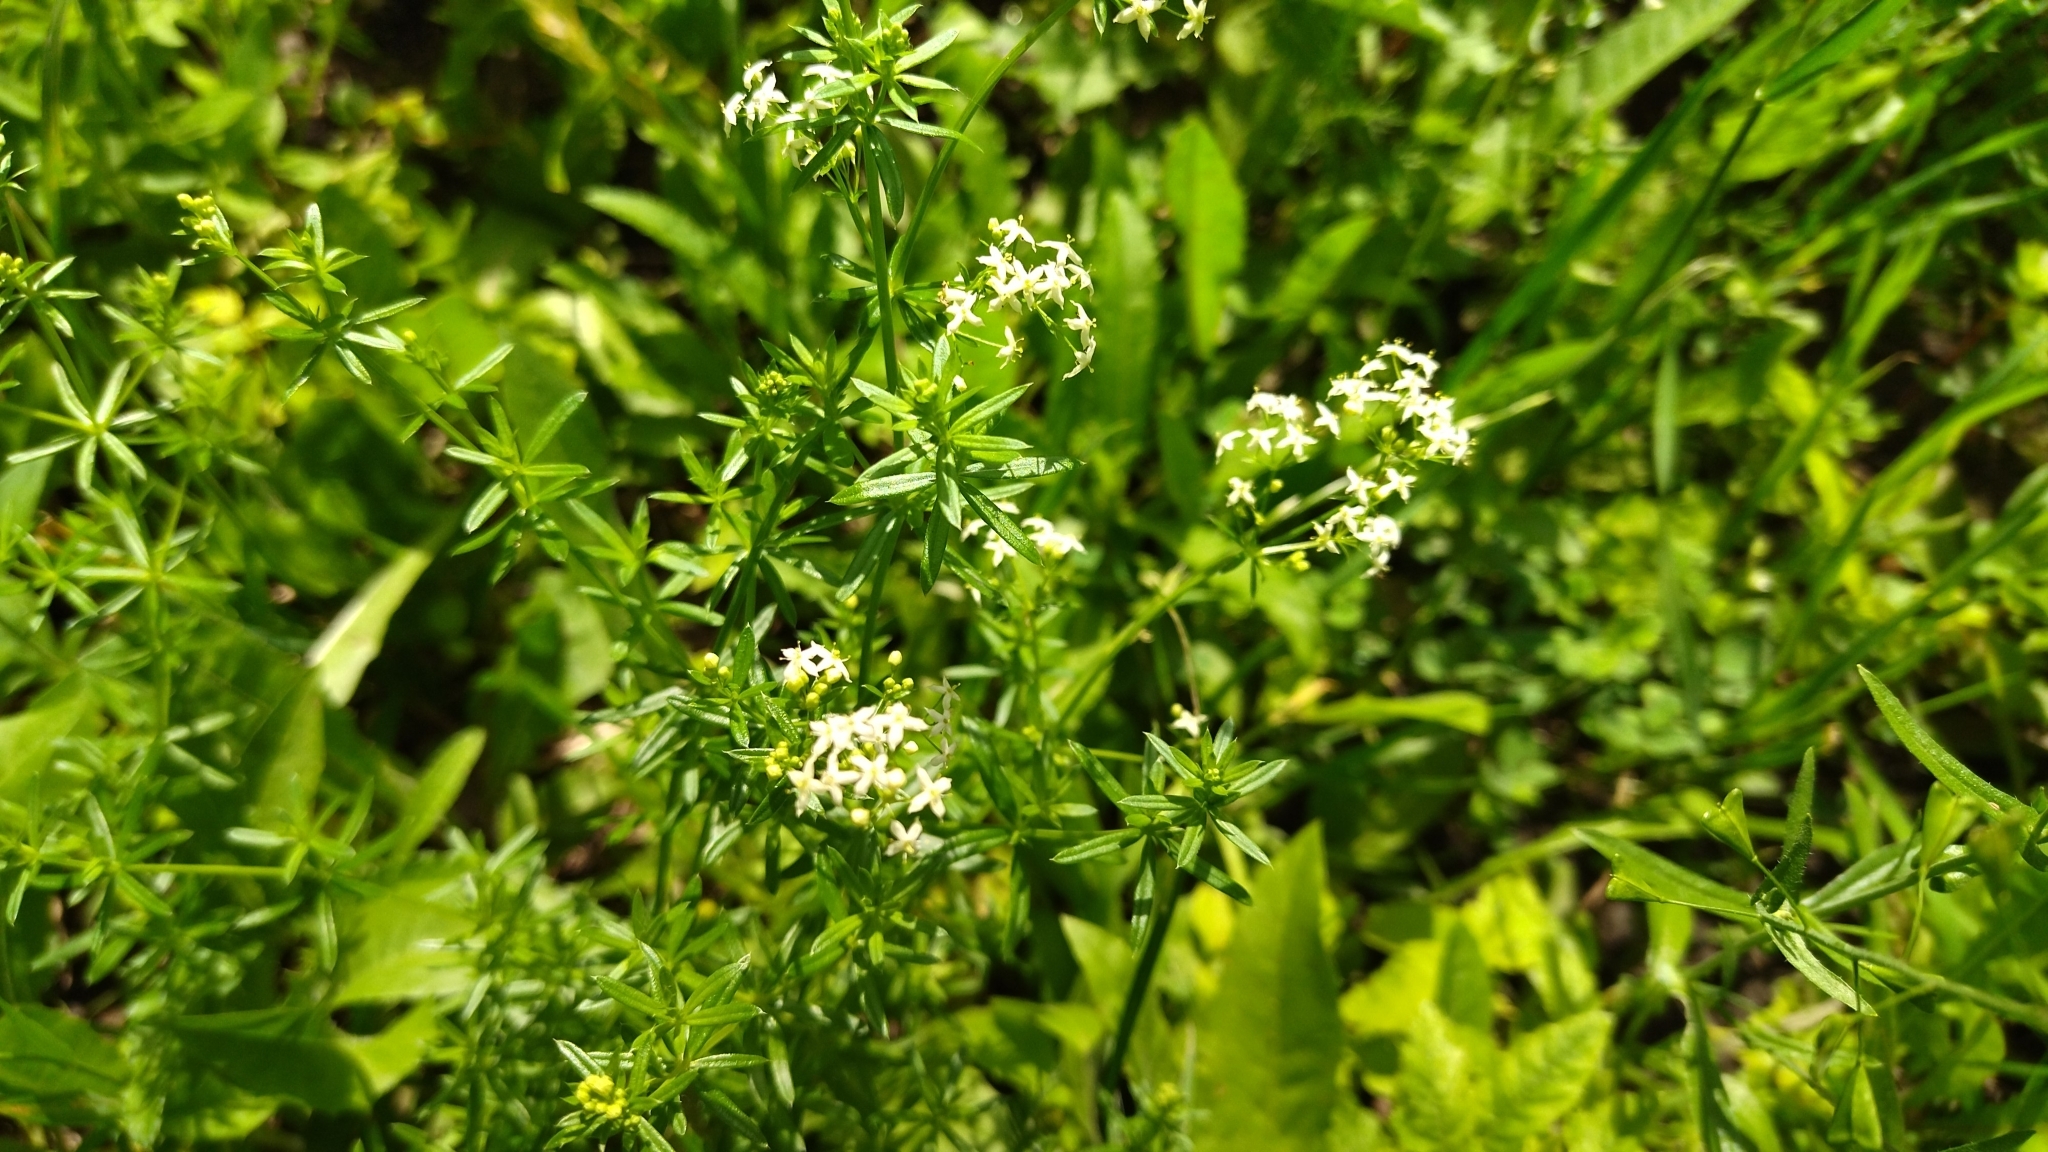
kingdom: Plantae
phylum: Tracheophyta
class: Magnoliopsida
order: Gentianales
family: Rubiaceae
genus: Galium
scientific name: Galium mollugo
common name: Hedge bedstraw
